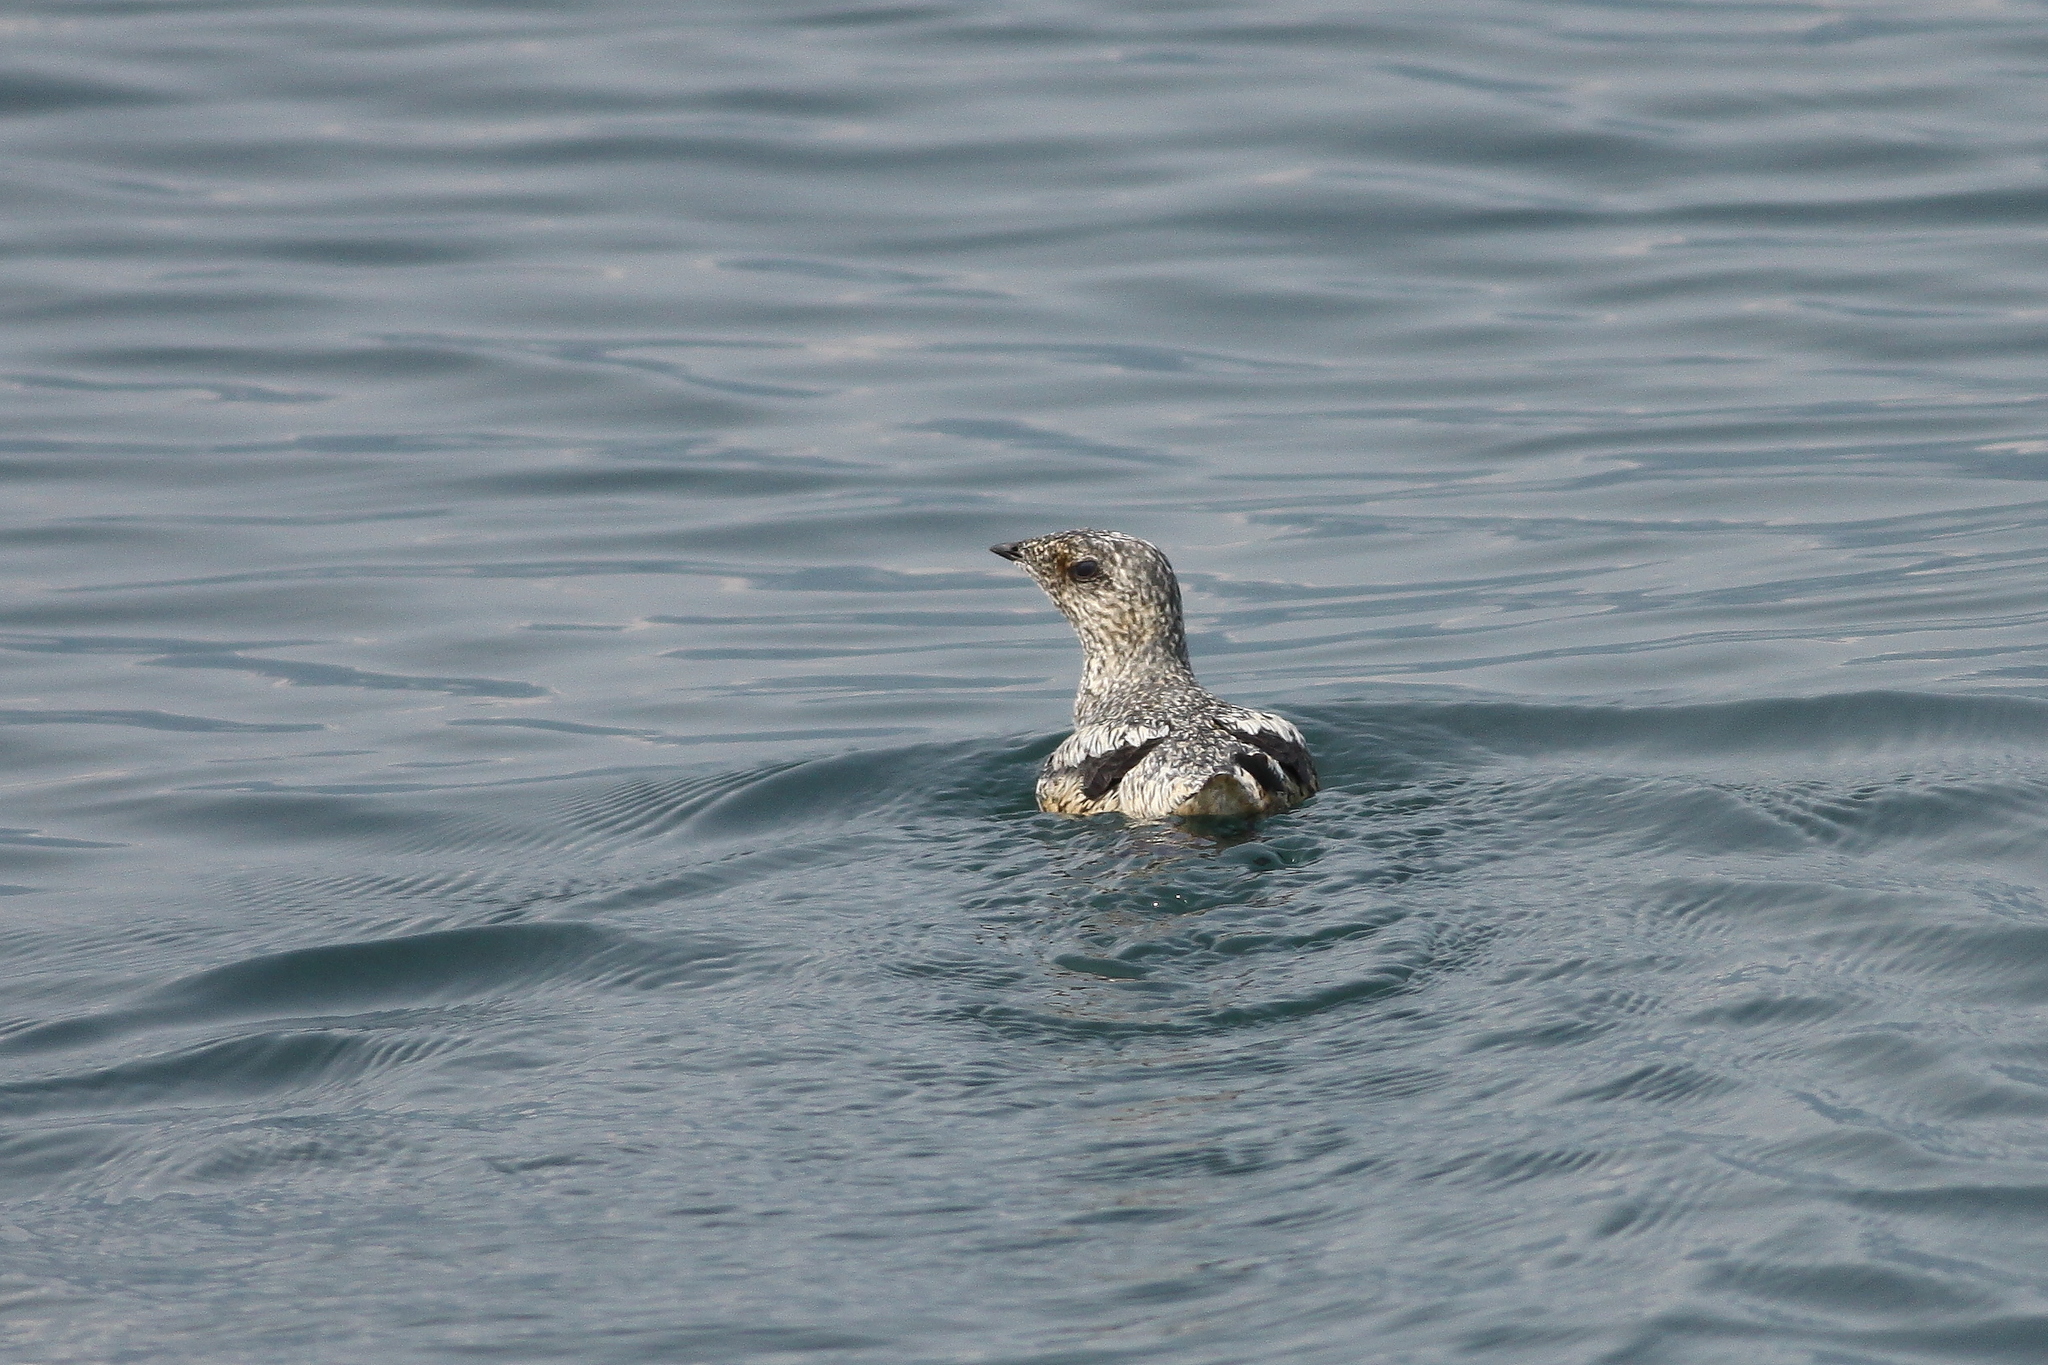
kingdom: Animalia
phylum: Chordata
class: Aves
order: Charadriiformes
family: Alcidae
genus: Brachyramphus
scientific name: Brachyramphus brevirostris
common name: Kittlitz's murrelet
